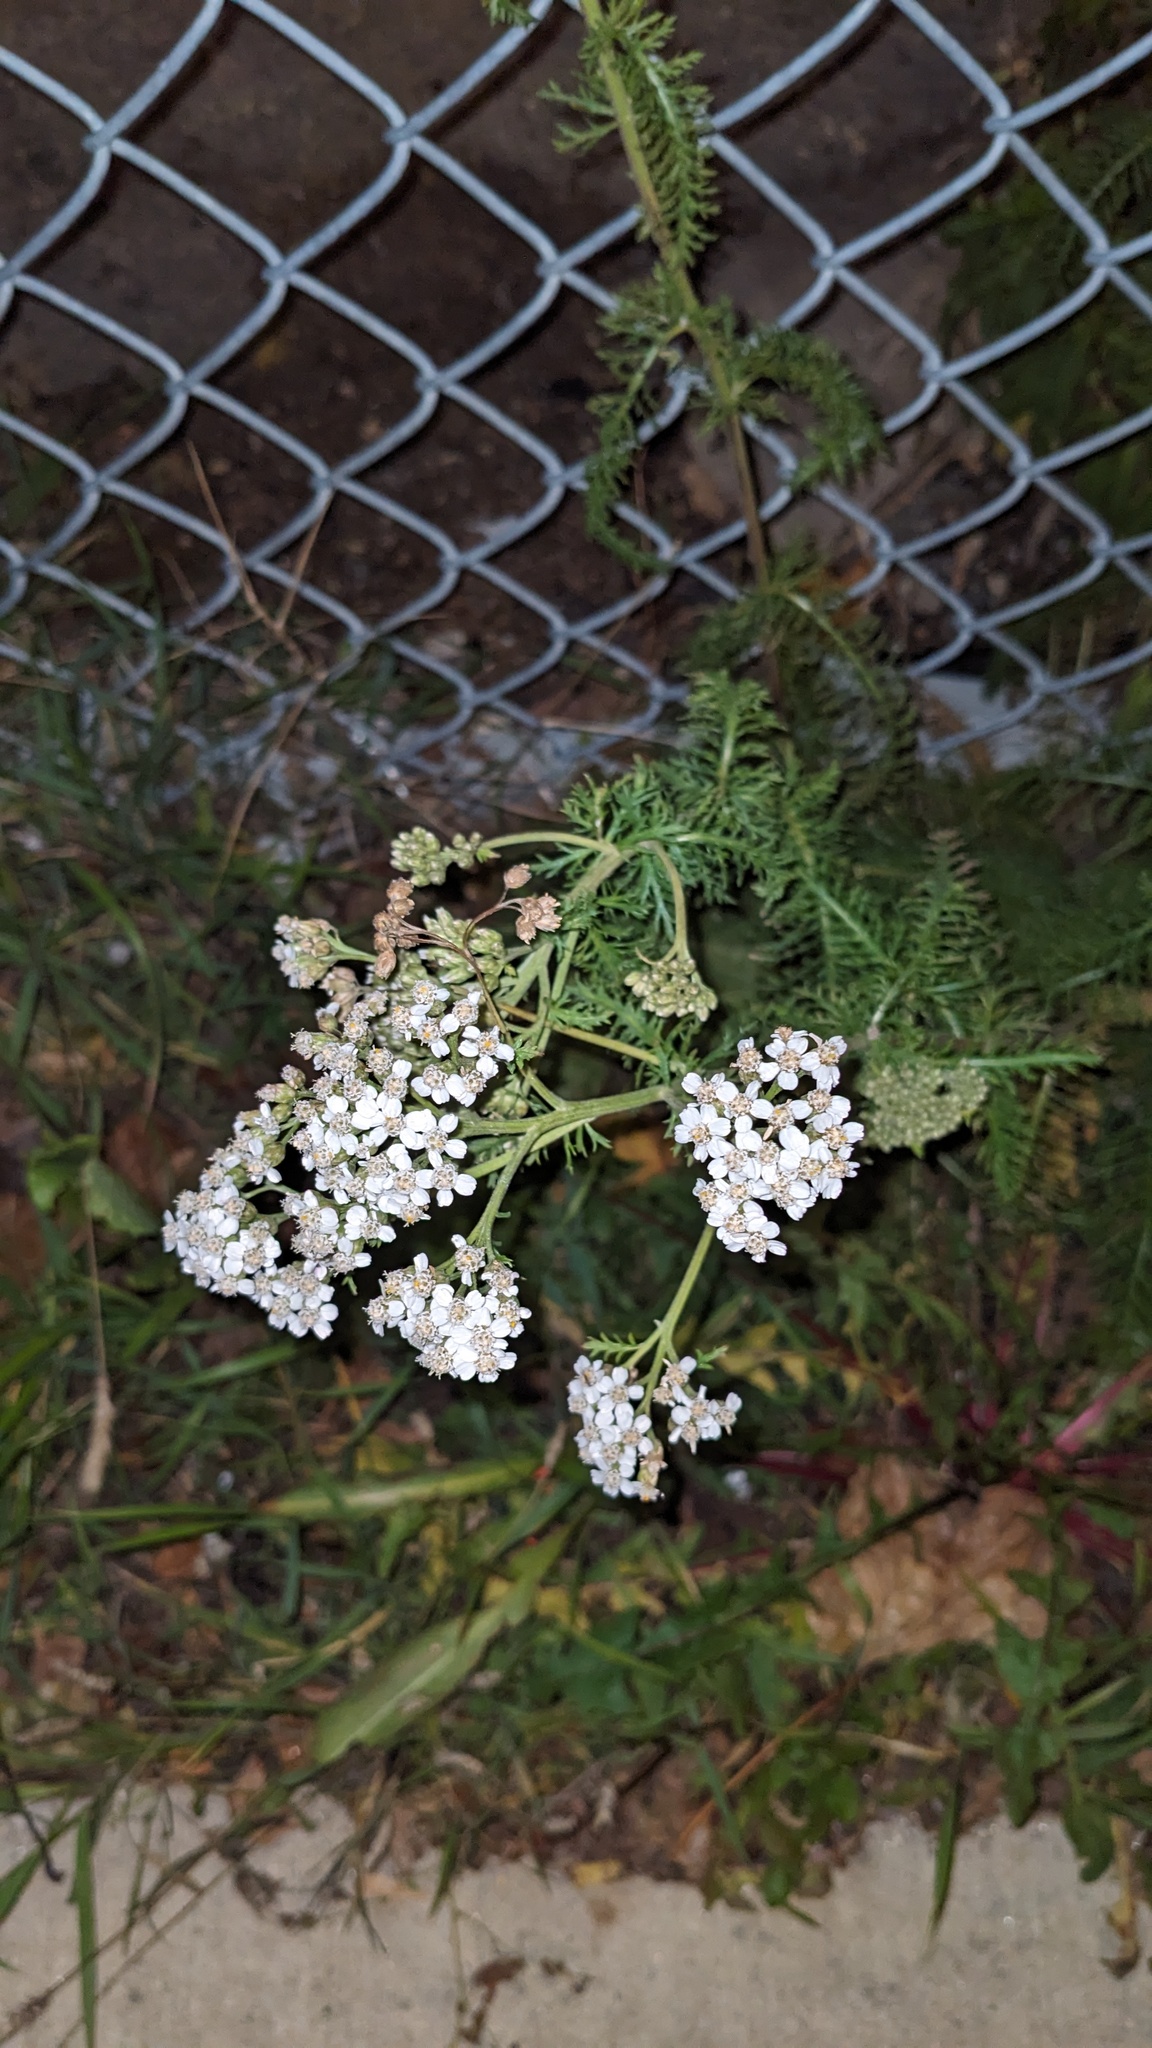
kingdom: Plantae
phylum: Tracheophyta
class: Magnoliopsida
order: Asterales
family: Asteraceae
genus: Achillea
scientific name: Achillea millefolium
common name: Yarrow
